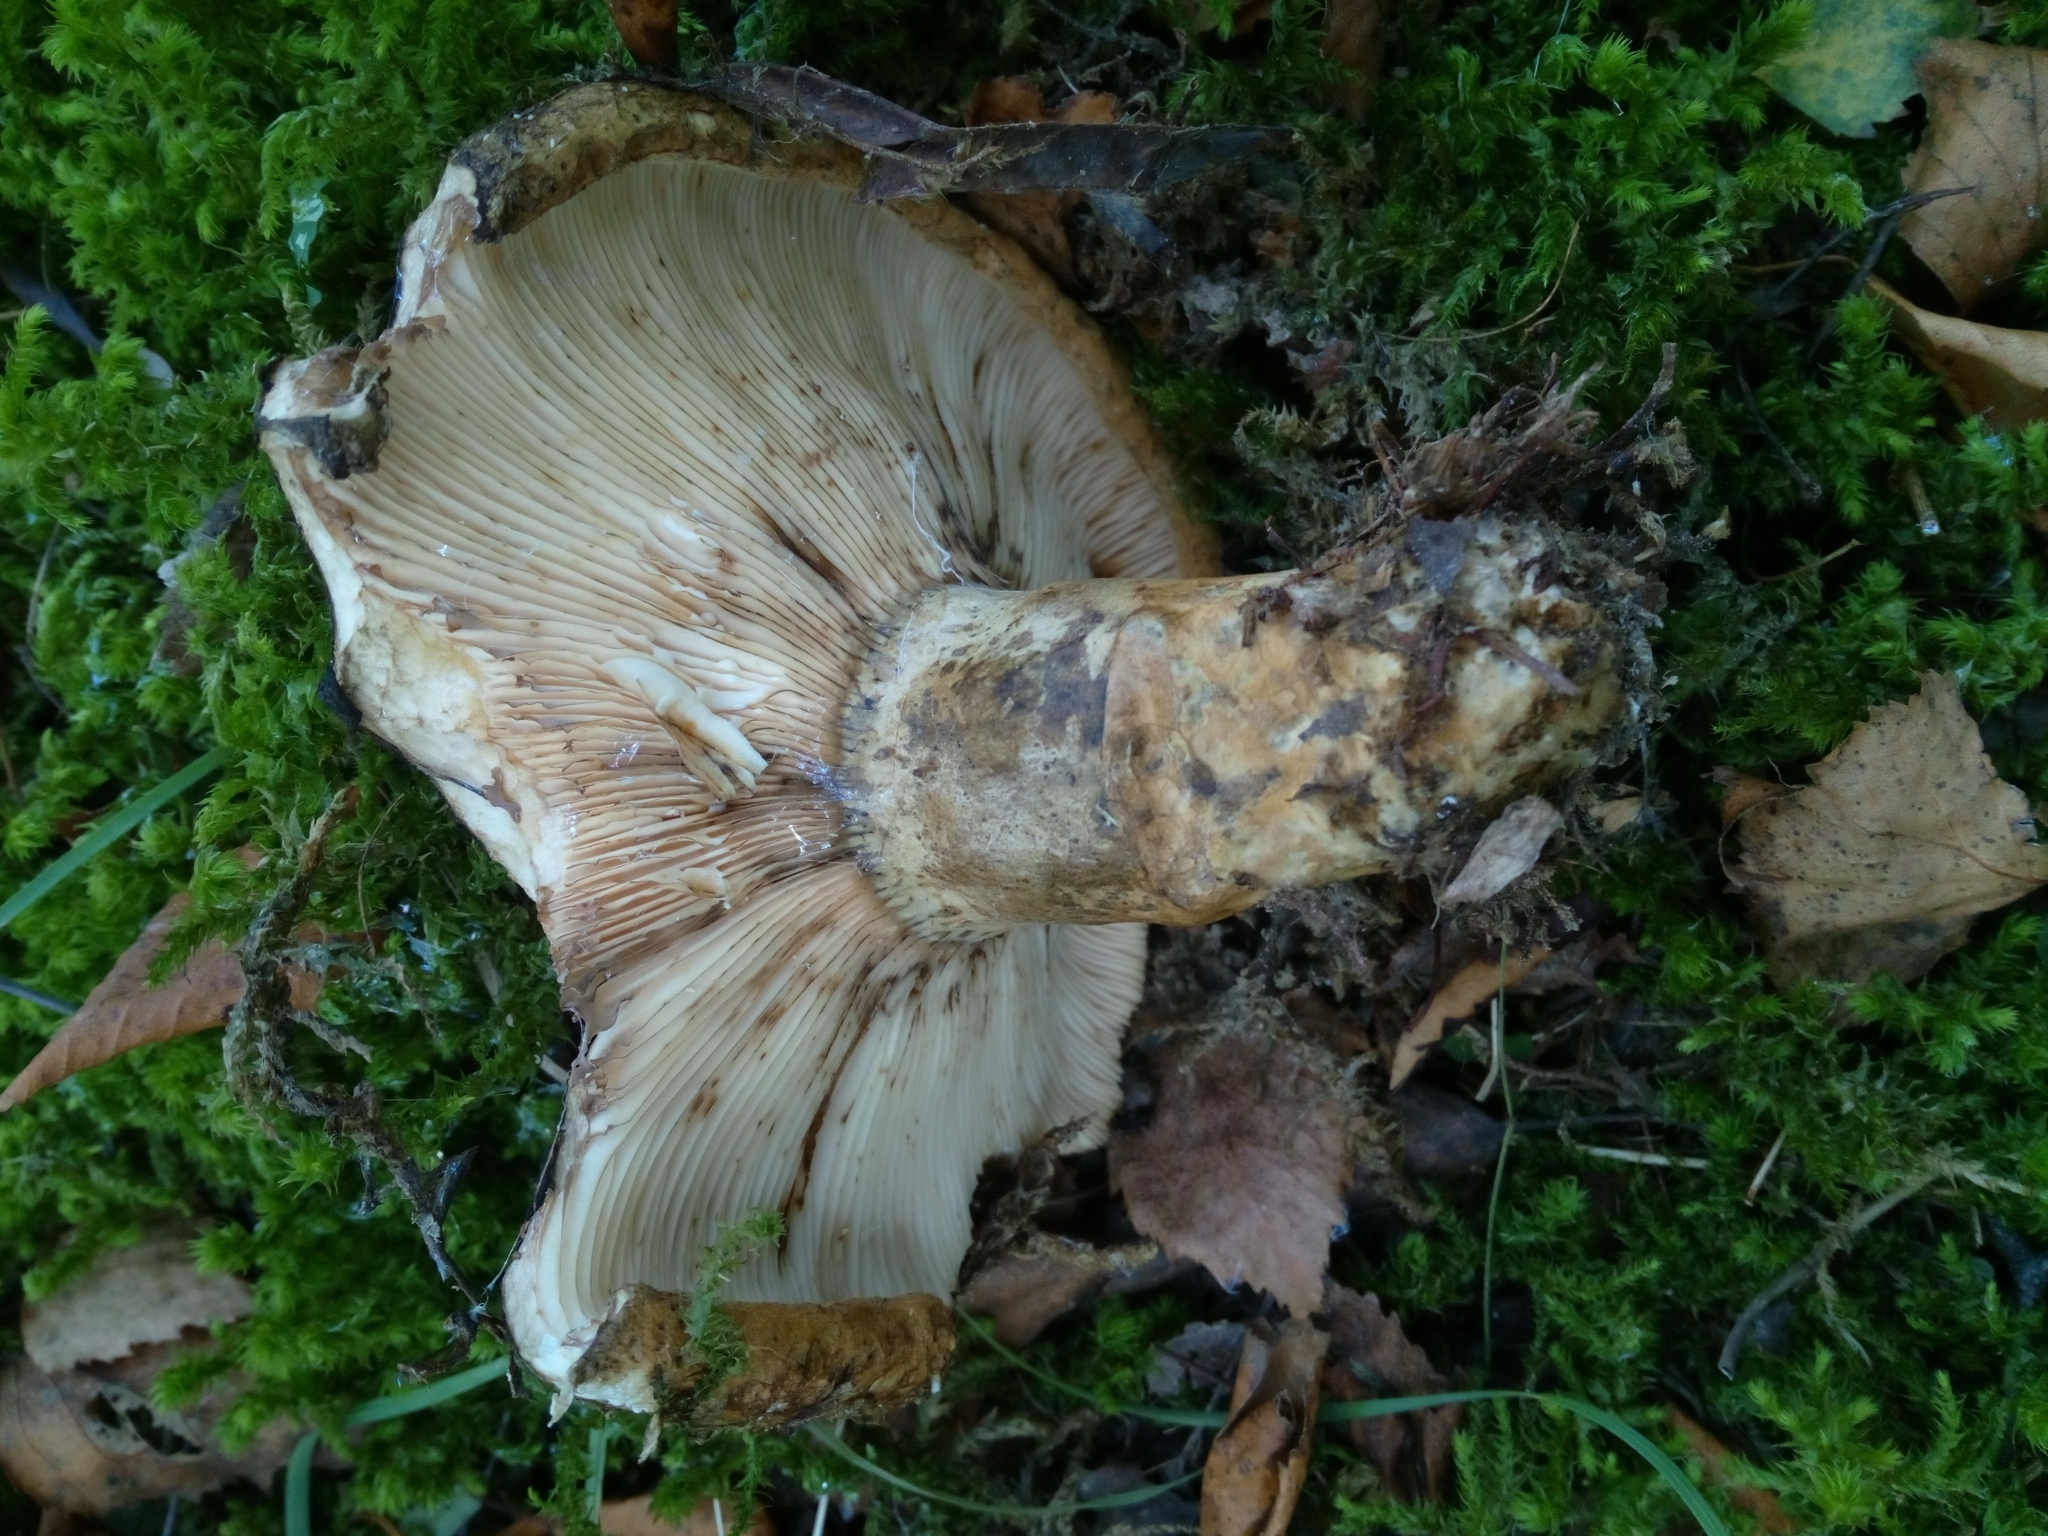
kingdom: Fungi
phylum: Basidiomycota
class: Agaricomycetes
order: Russulales
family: Russulaceae
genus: Lactarius
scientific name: Lactarius turpis
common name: Ugly milk-cap
